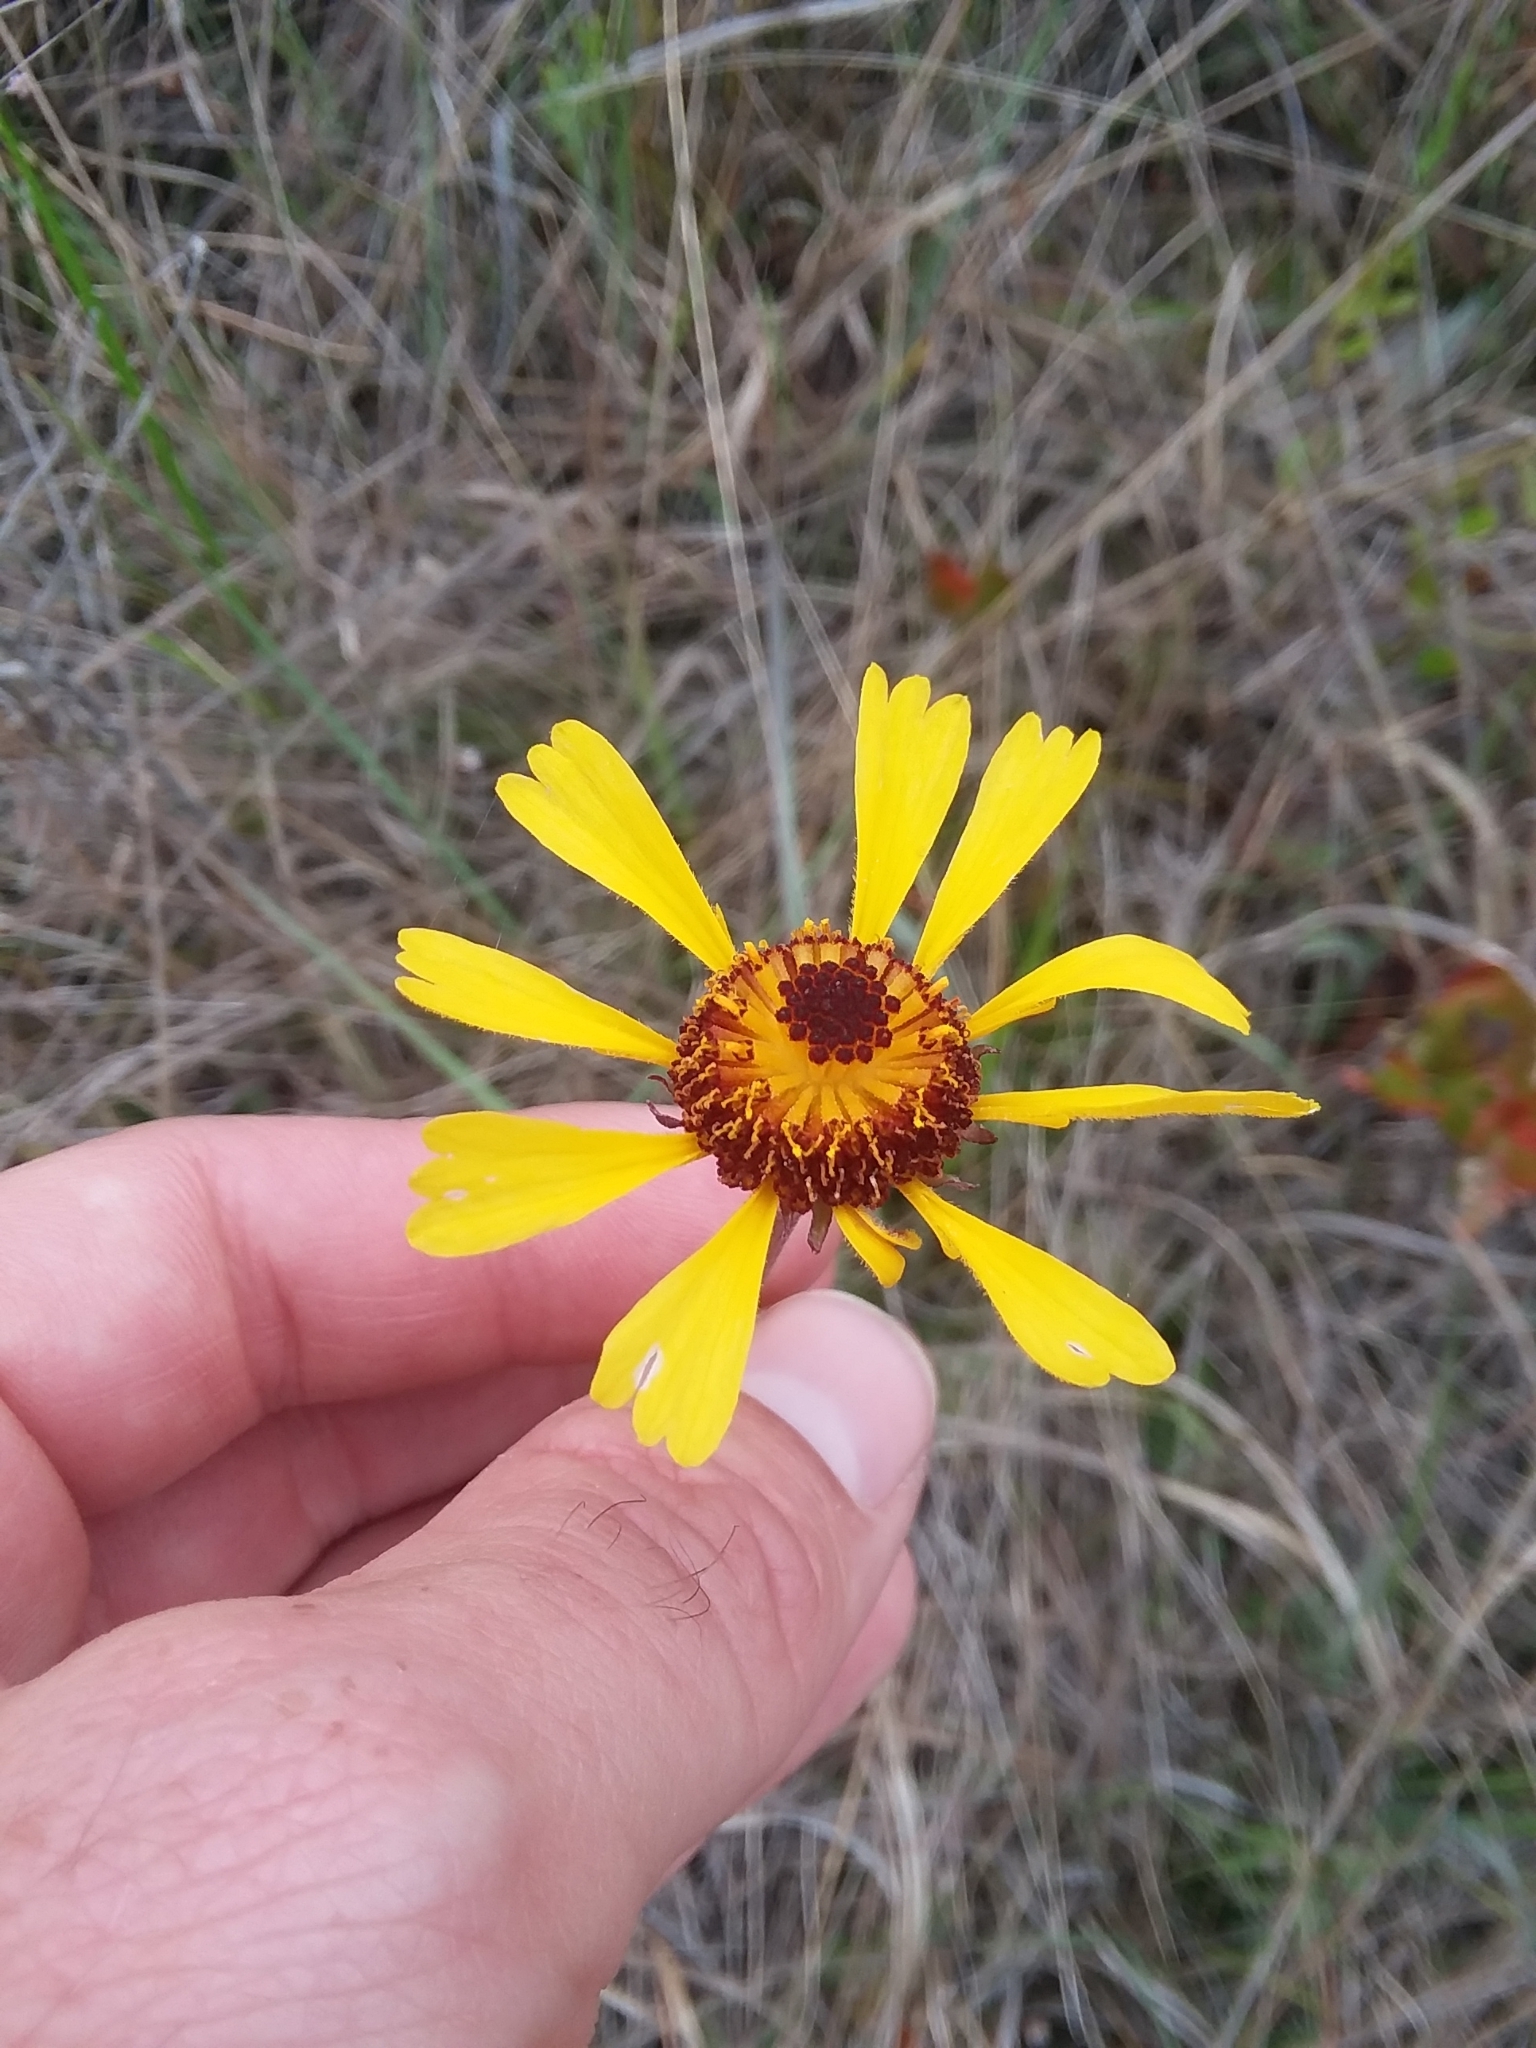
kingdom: Plantae
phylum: Tracheophyta
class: Magnoliopsida
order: Asterales
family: Asteraceae
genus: Helenium
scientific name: Helenium brevifolium
